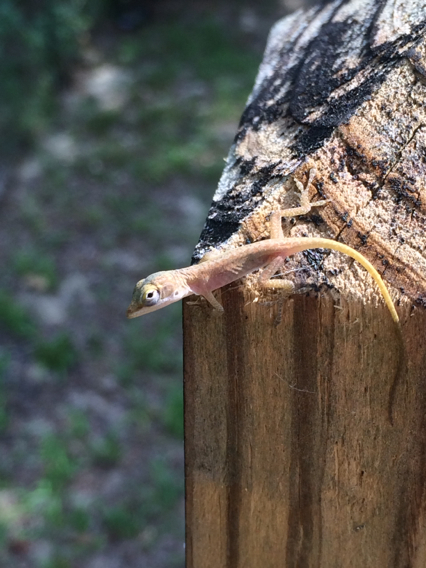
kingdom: Animalia
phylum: Chordata
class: Squamata
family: Dactyloidae
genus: Anolis
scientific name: Anolis carolinensis
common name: Green anole
